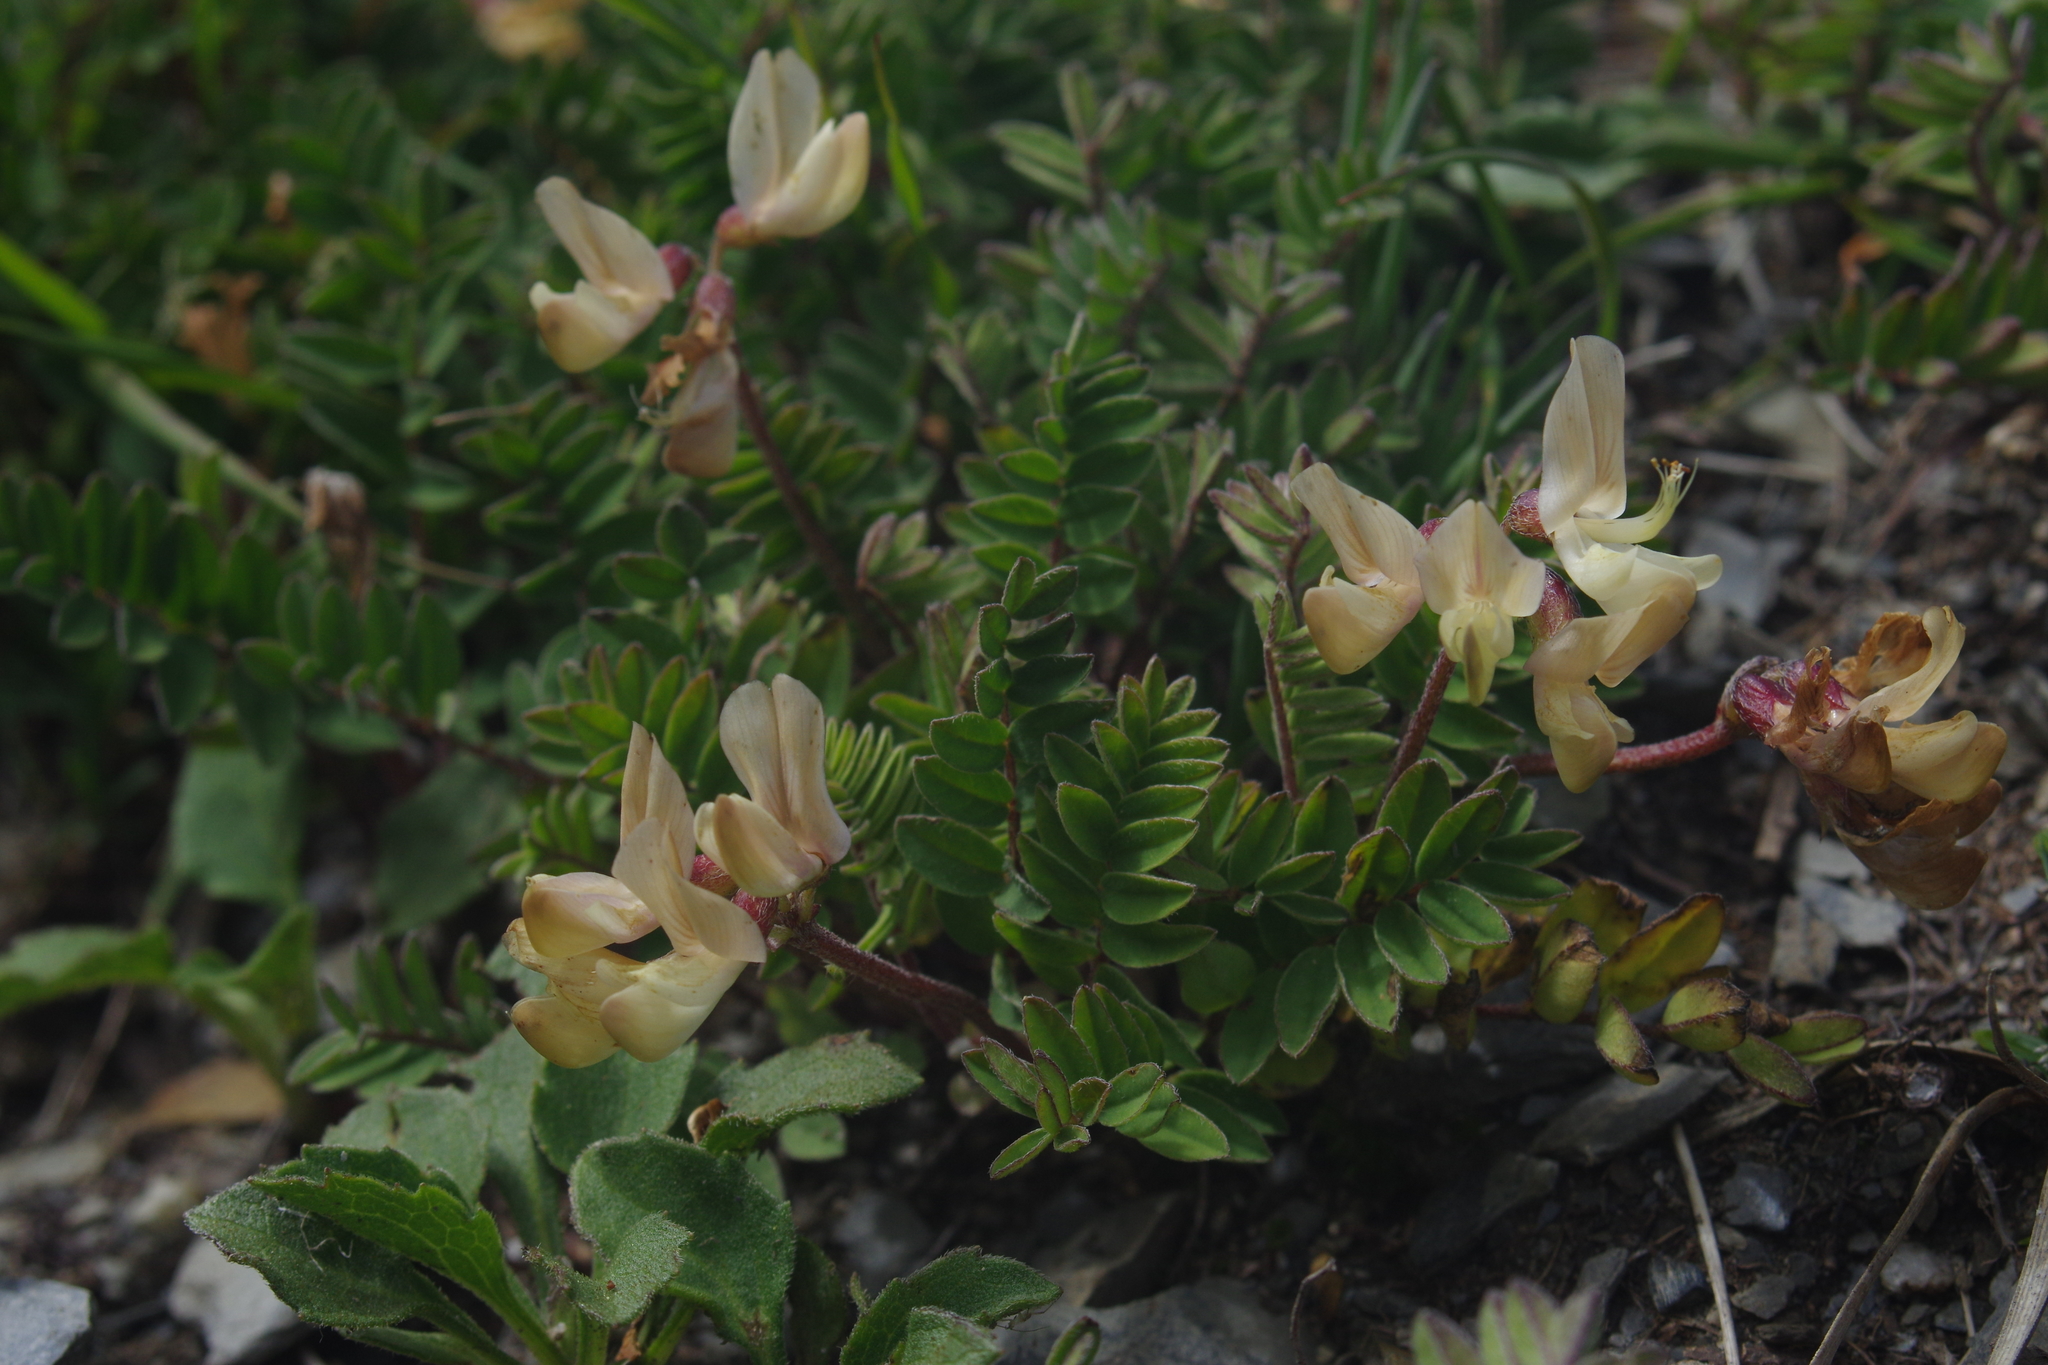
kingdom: Plantae
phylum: Tracheophyta
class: Magnoliopsida
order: Fabales
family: Fabaceae
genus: Astragalus
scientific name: Astragalus nankotaizanensis
